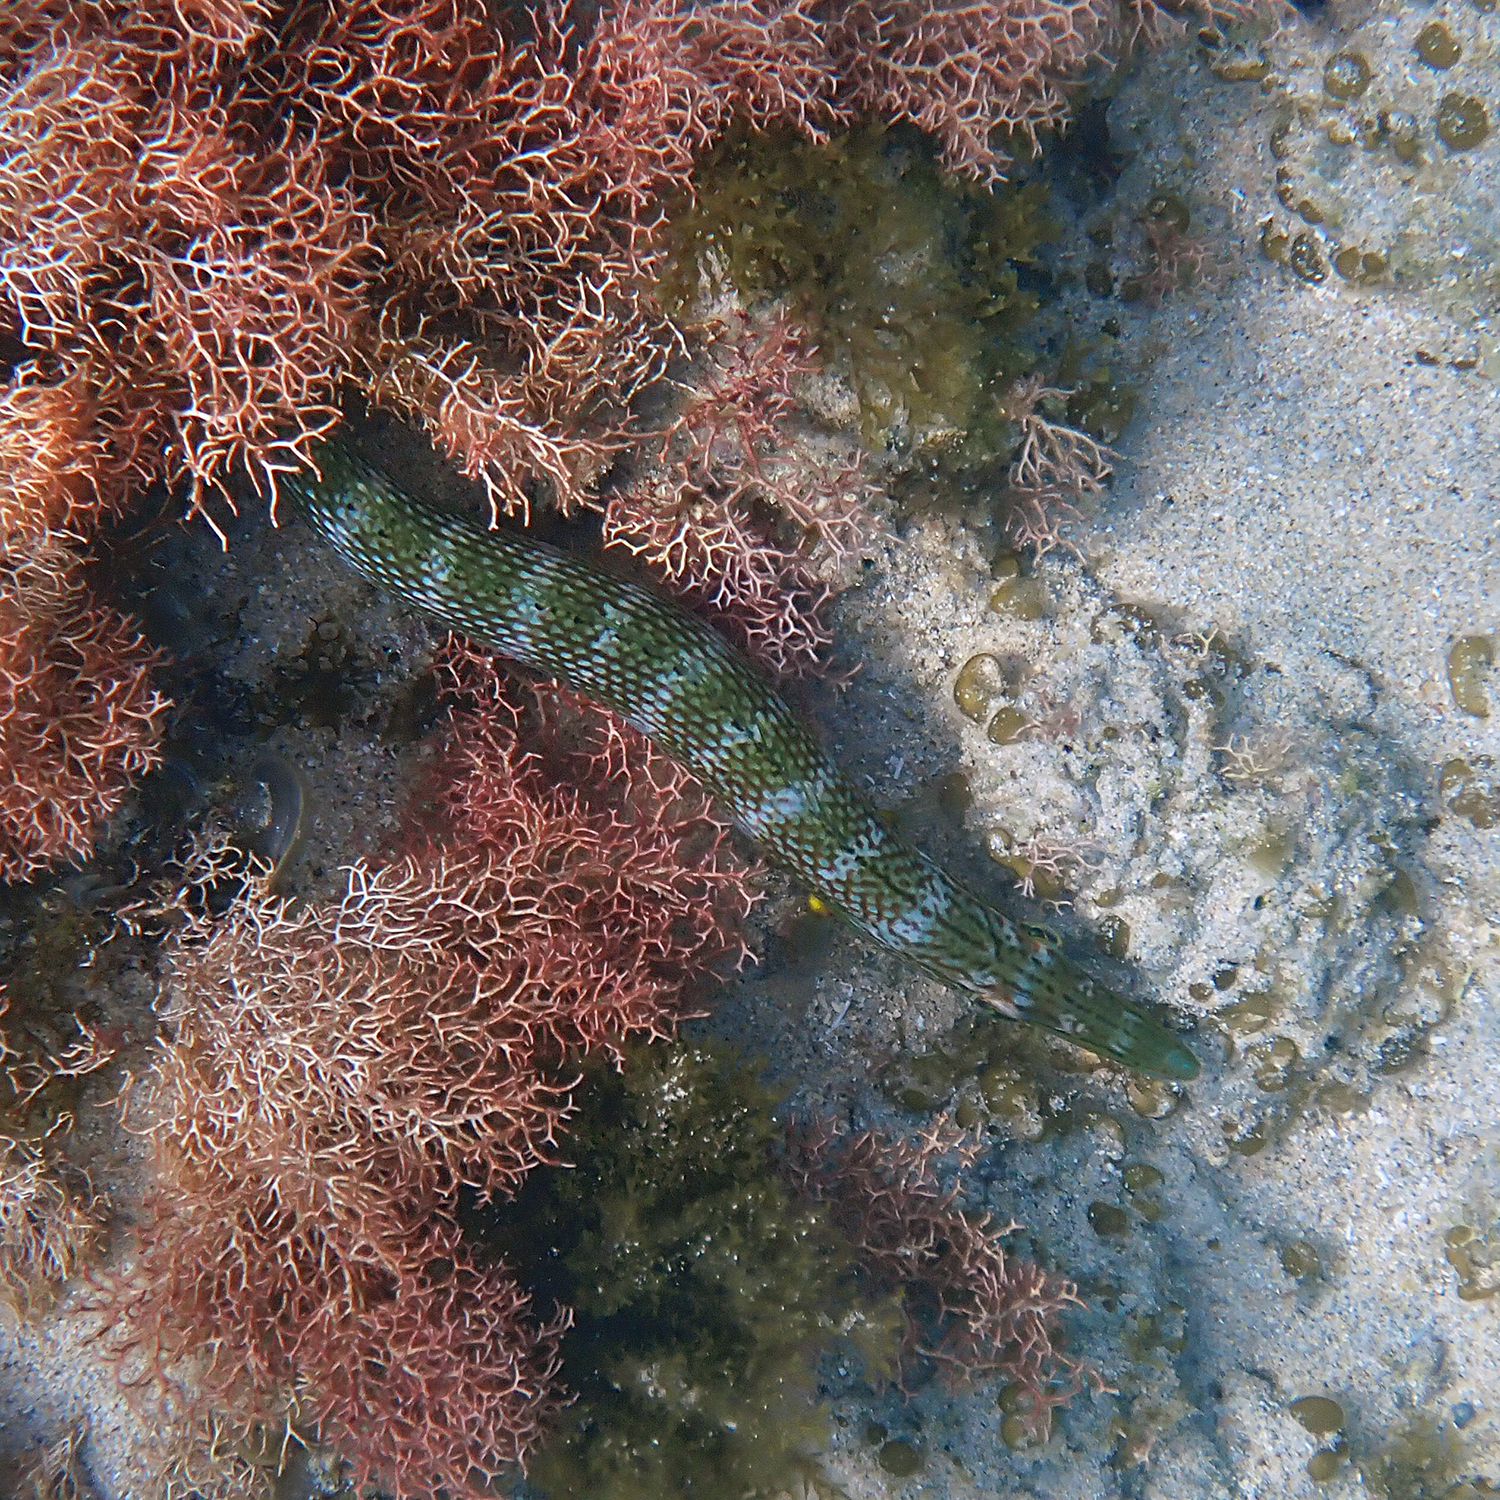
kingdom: Animalia
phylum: Chordata
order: Perciformes
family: Labridae
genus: Cheilio
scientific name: Cheilio inermis
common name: Cigar wrasse
